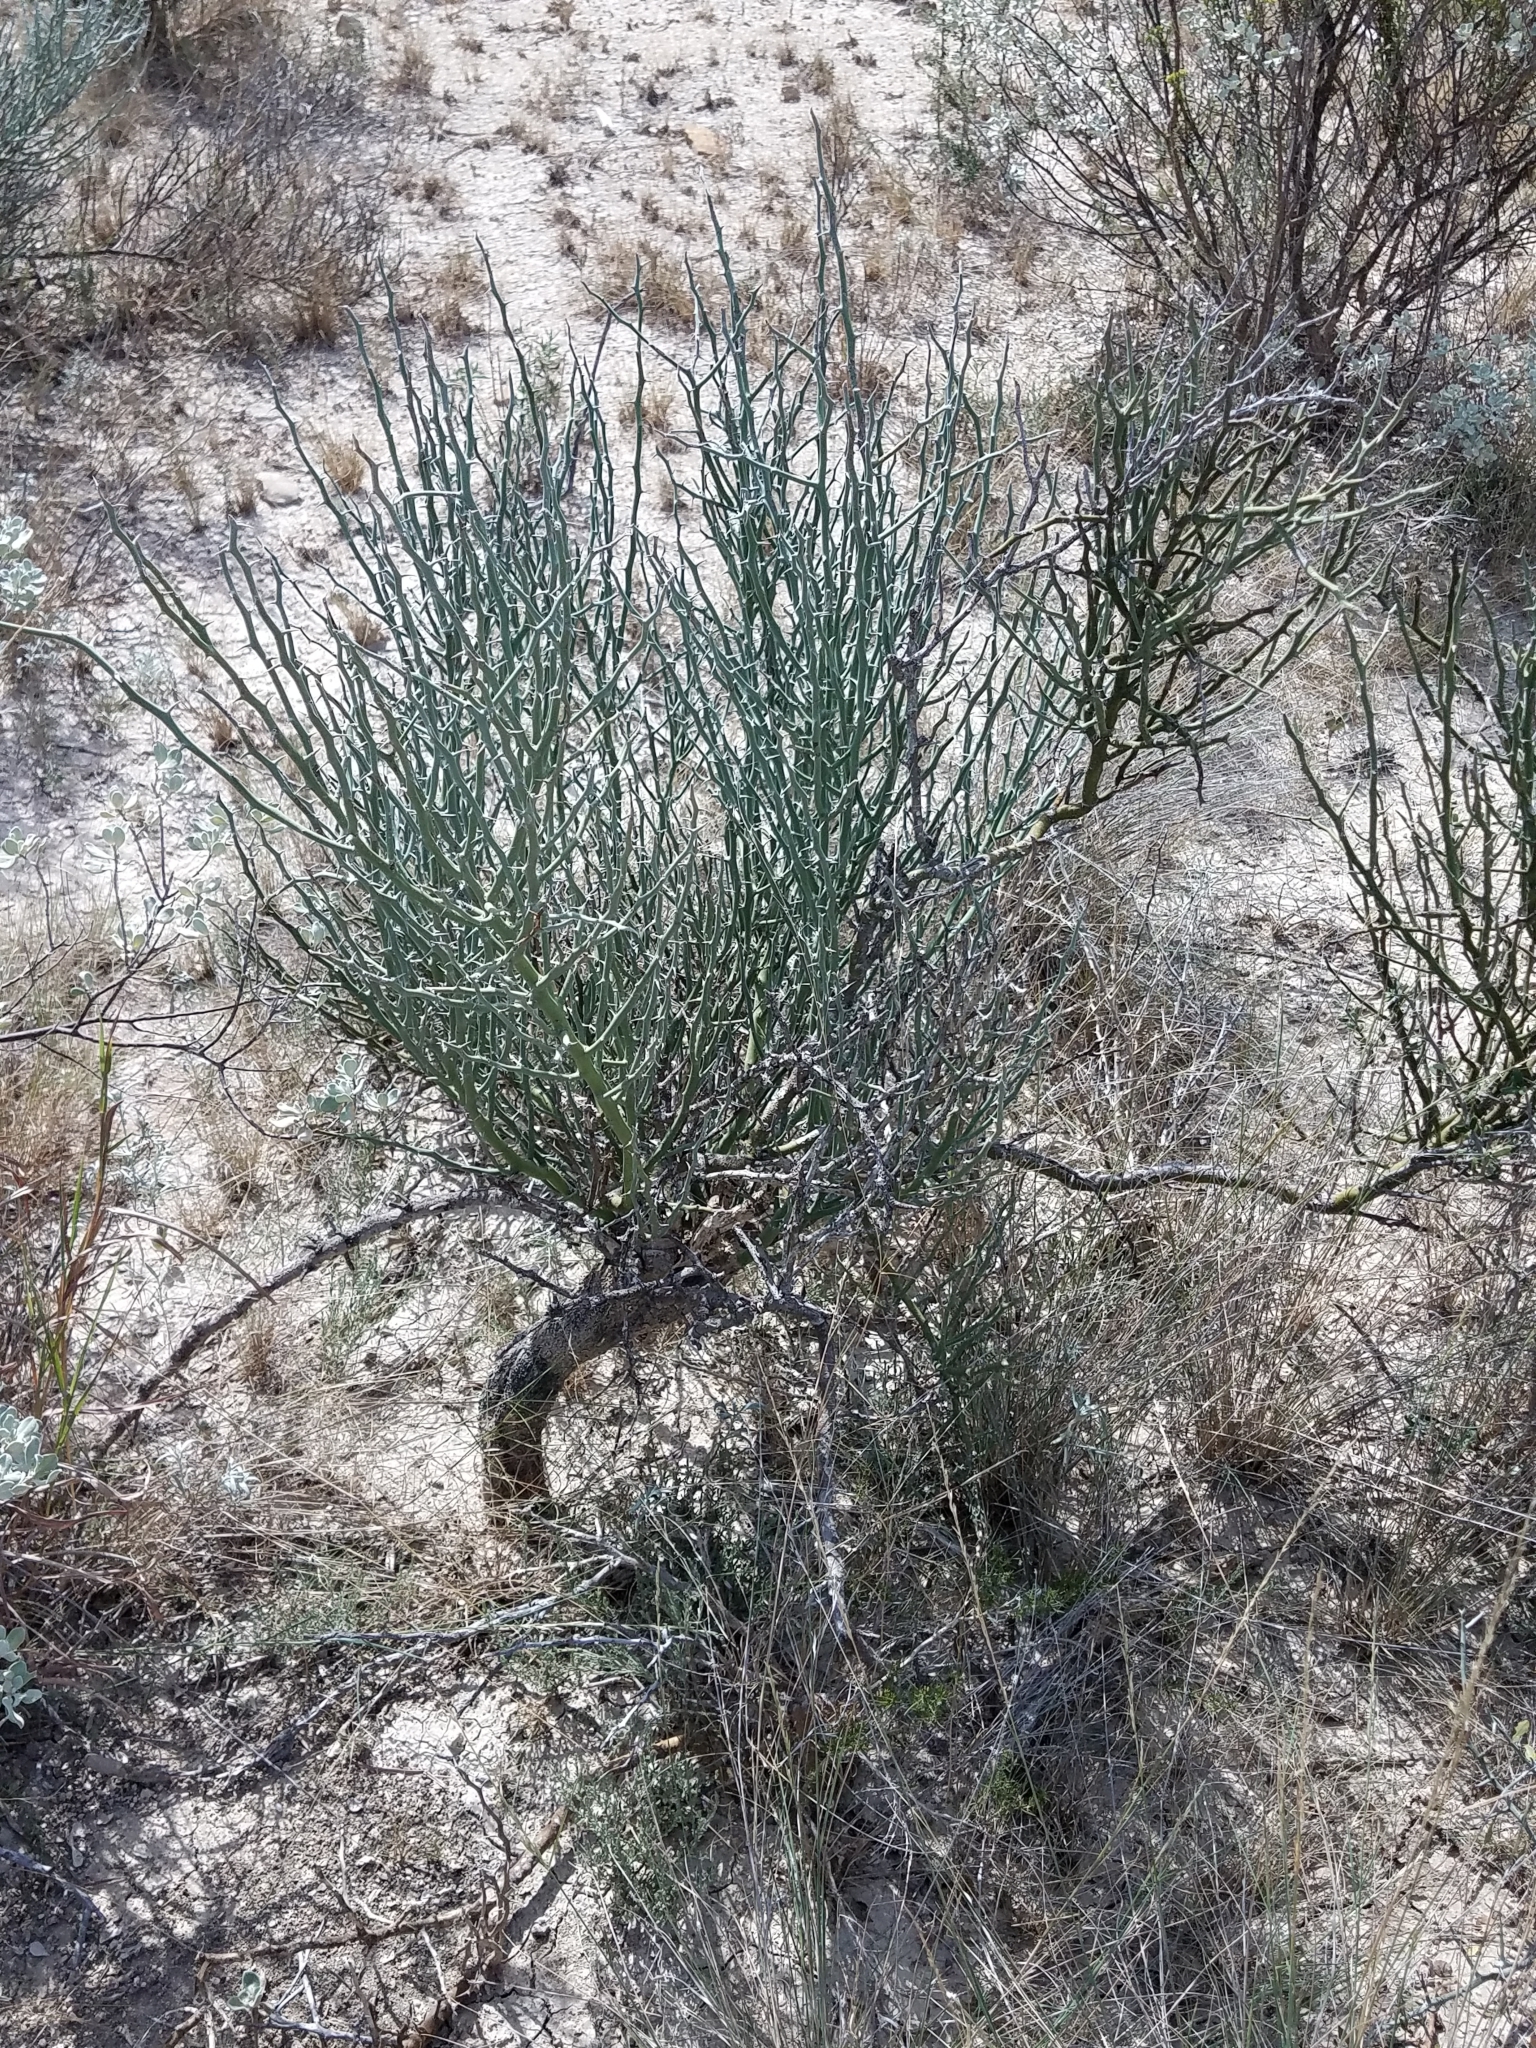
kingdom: Plantae
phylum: Tracheophyta
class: Magnoliopsida
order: Fabales
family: Fabaceae
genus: Parkinsonia
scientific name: Parkinsonia texana
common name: Texas paloverde
